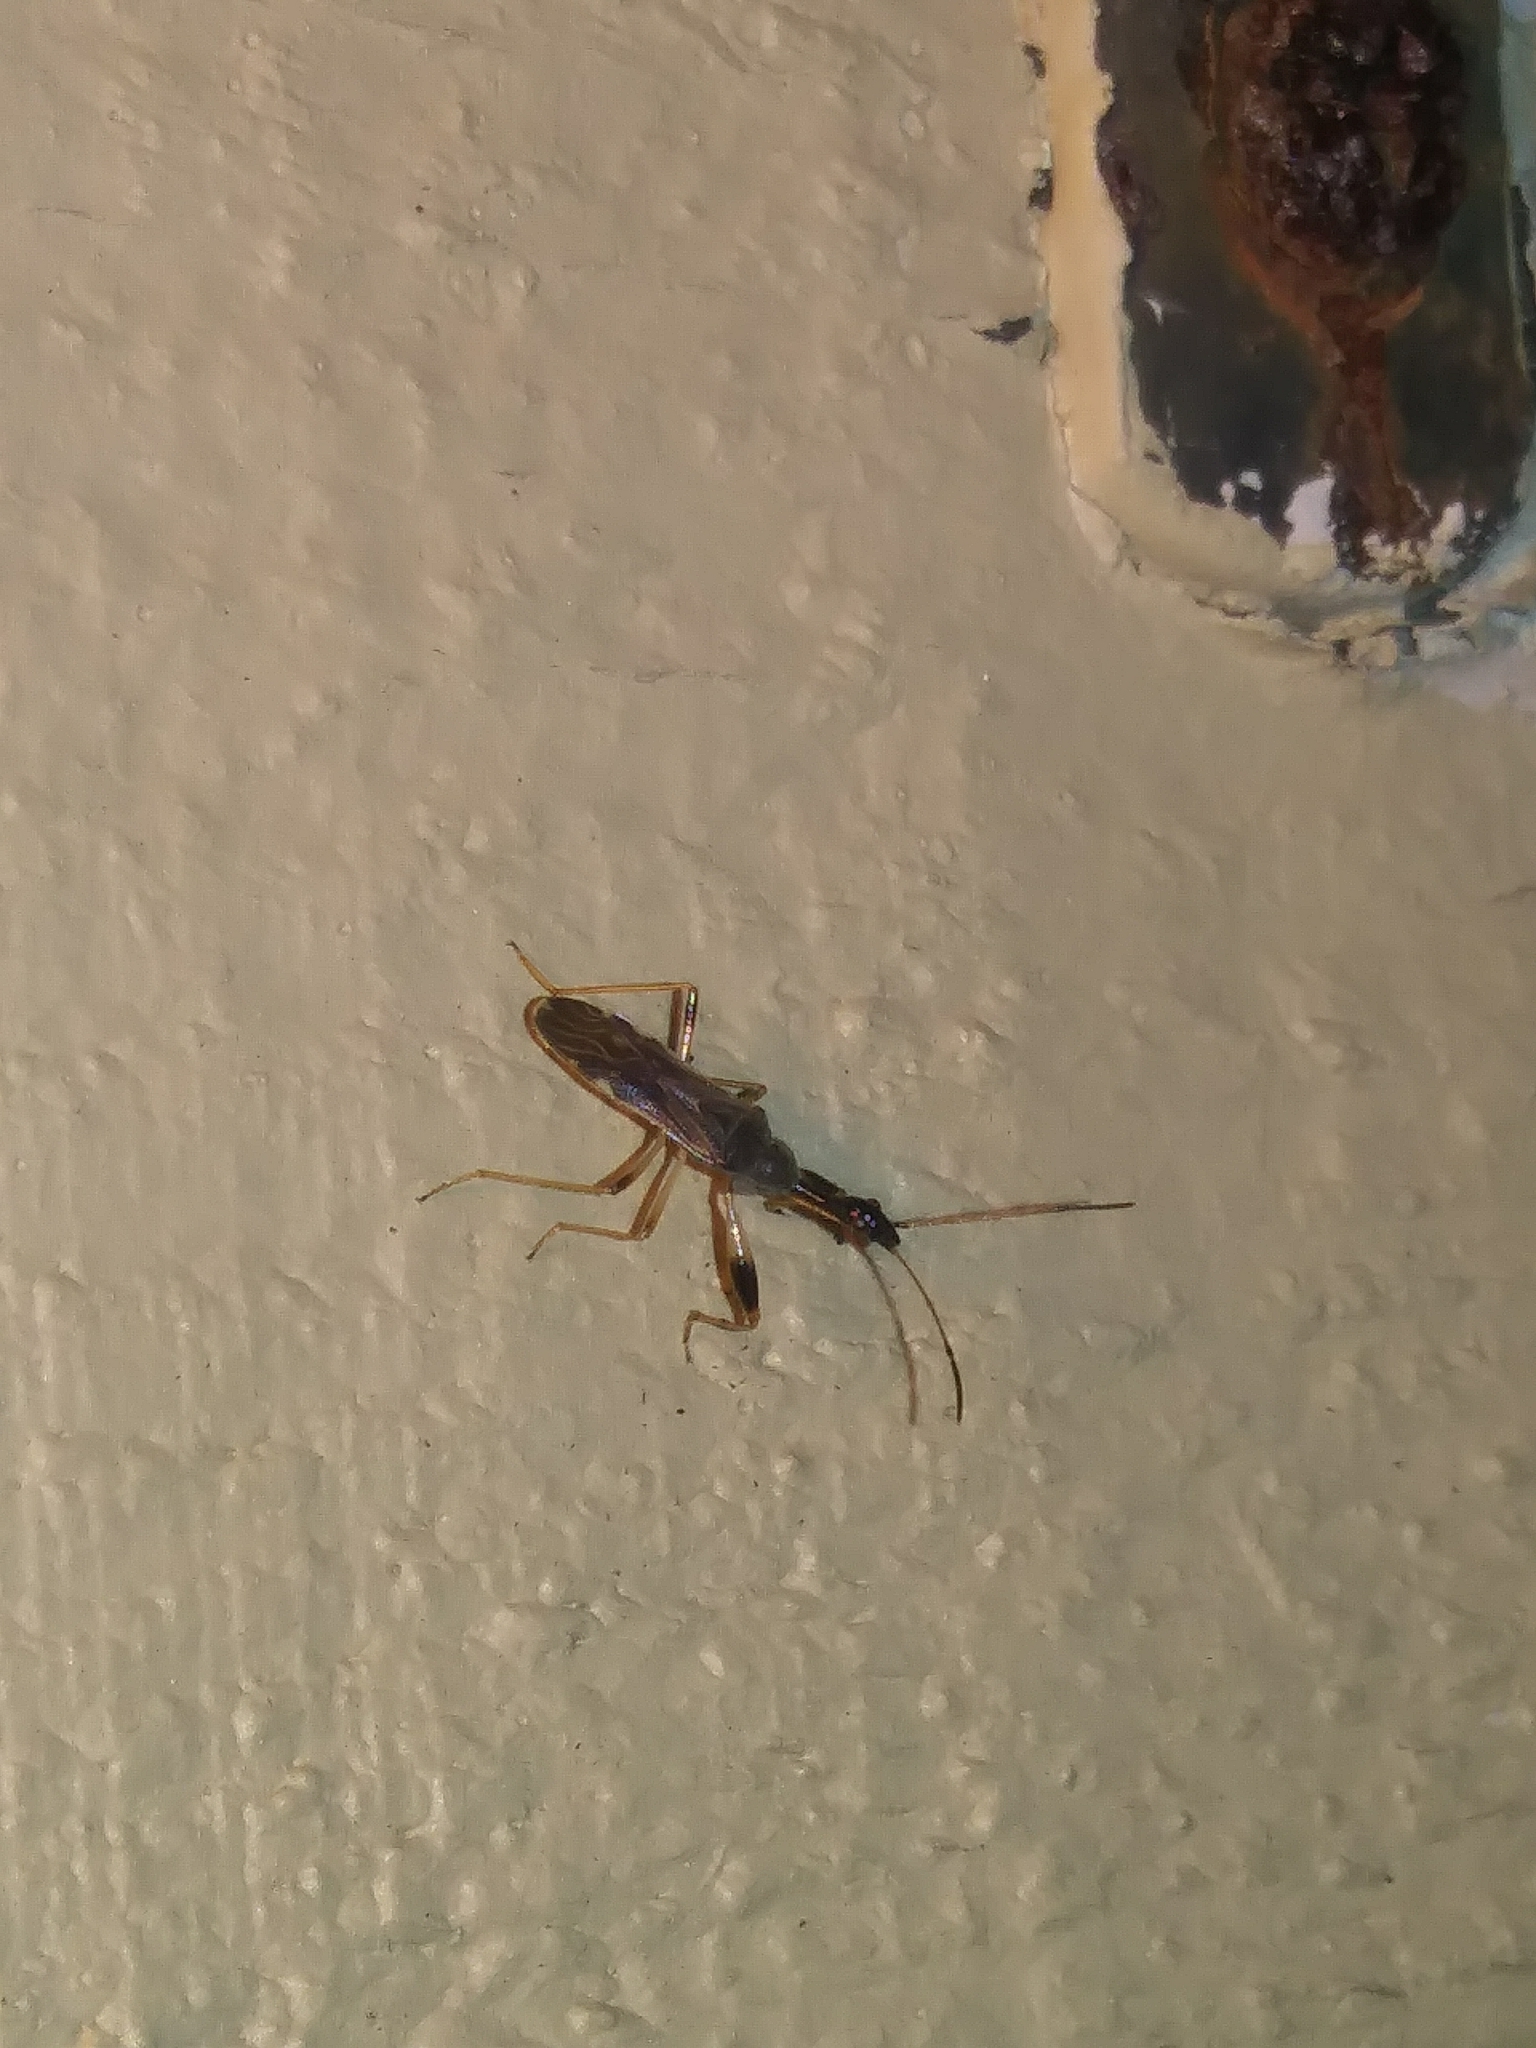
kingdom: Animalia
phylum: Arthropoda
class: Insecta
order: Hemiptera
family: Rhyparochromidae
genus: Myodocha
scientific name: Myodocha serripes
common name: Long-necked seed bug
